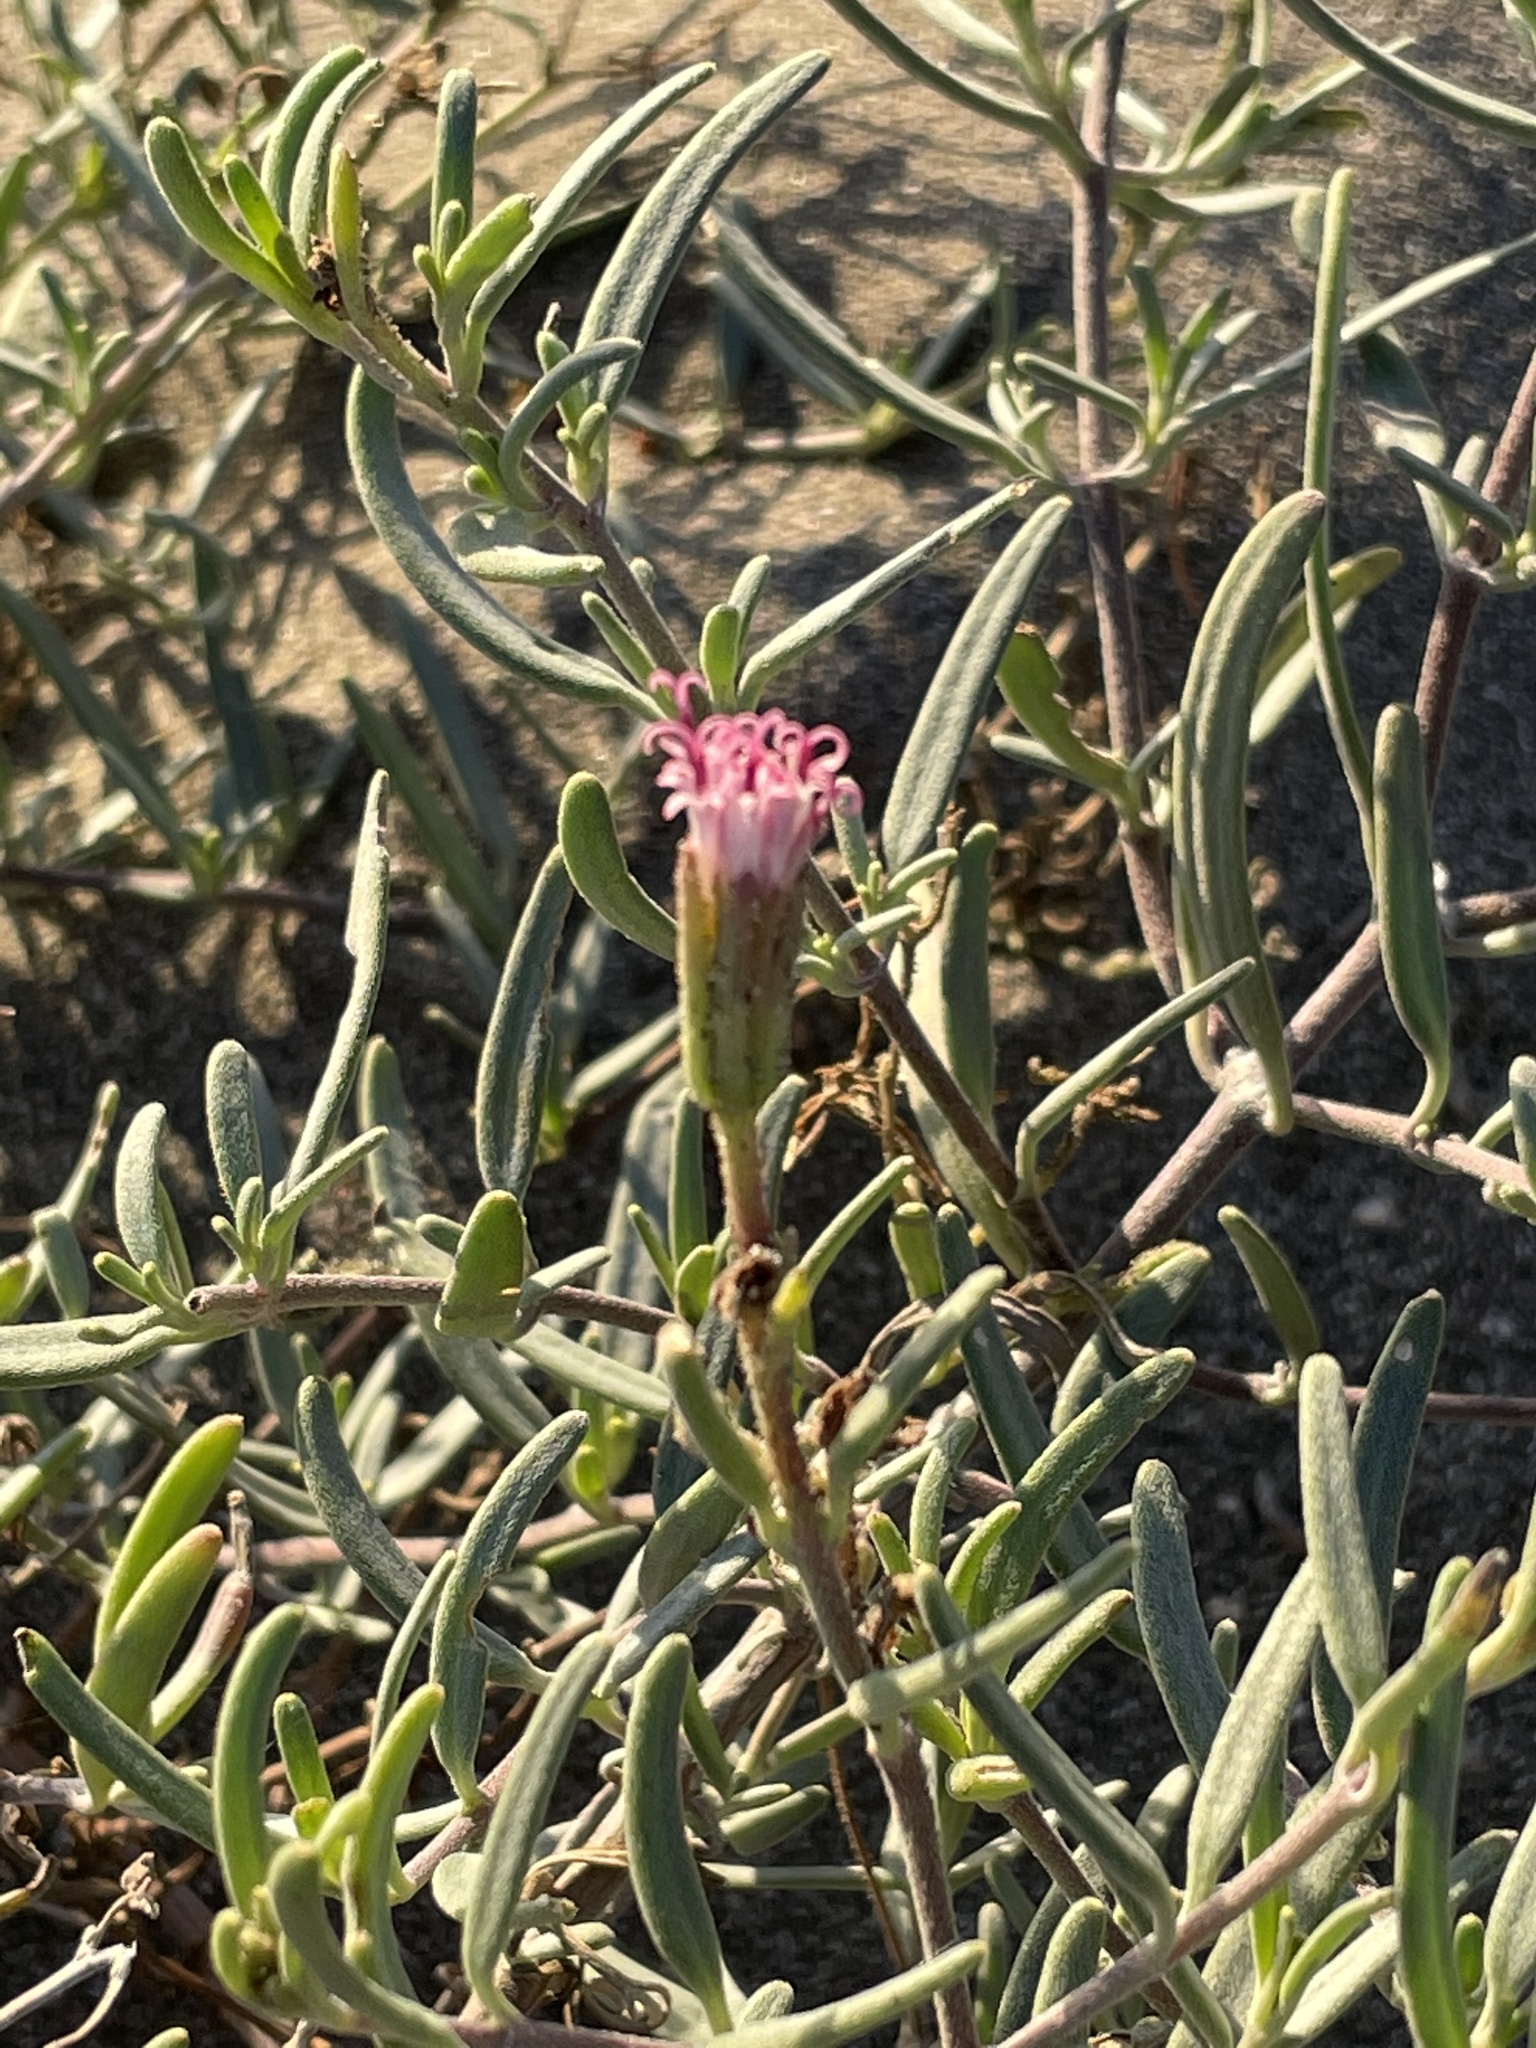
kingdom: Plantae
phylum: Tracheophyta
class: Magnoliopsida
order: Asterales
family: Asteraceae
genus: Palafoxia
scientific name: Palafoxia linearis
